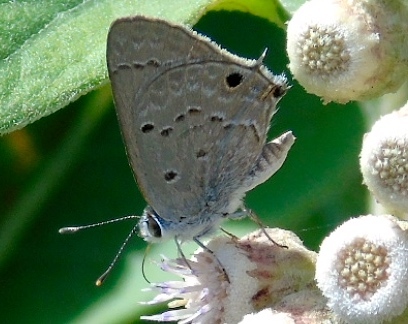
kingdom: Animalia
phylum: Arthropoda
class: Insecta
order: Lepidoptera
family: Lycaenidae
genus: Callicista
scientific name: Callicista columella
